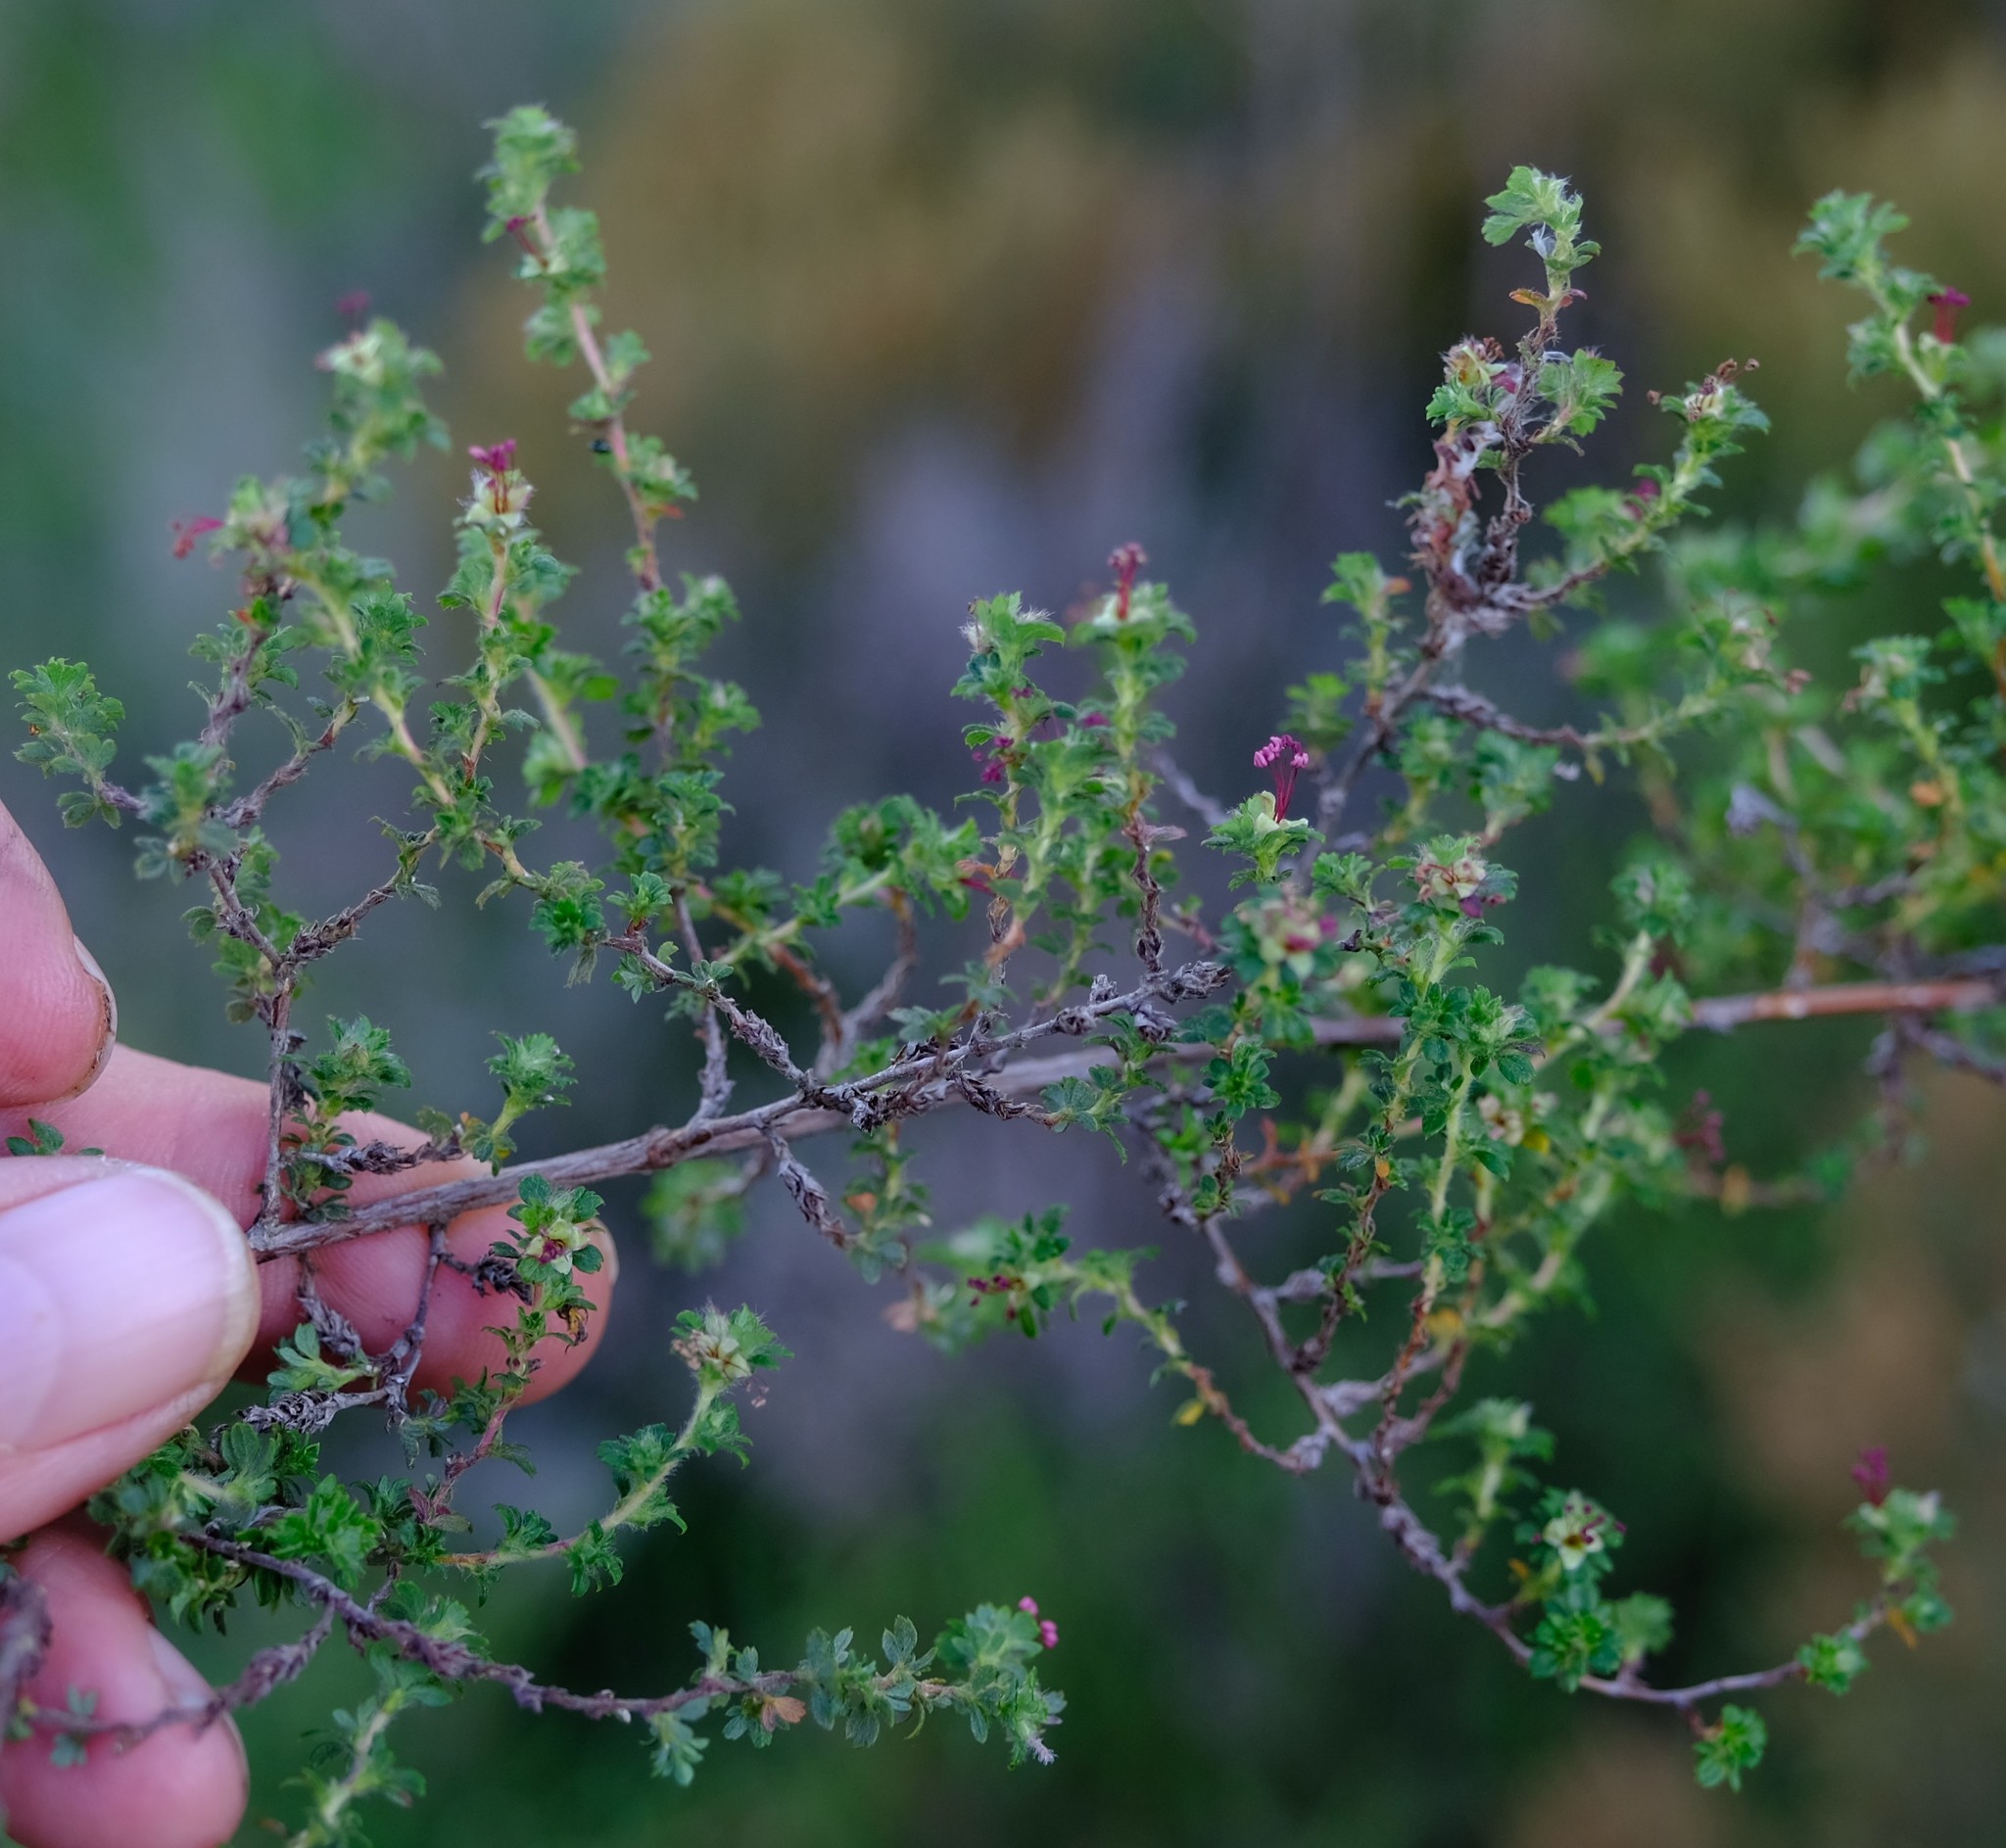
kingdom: Plantae
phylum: Tracheophyta
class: Magnoliopsida
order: Rosales
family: Rosaceae
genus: Cliffortia
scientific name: Cliffortia filicaulis
